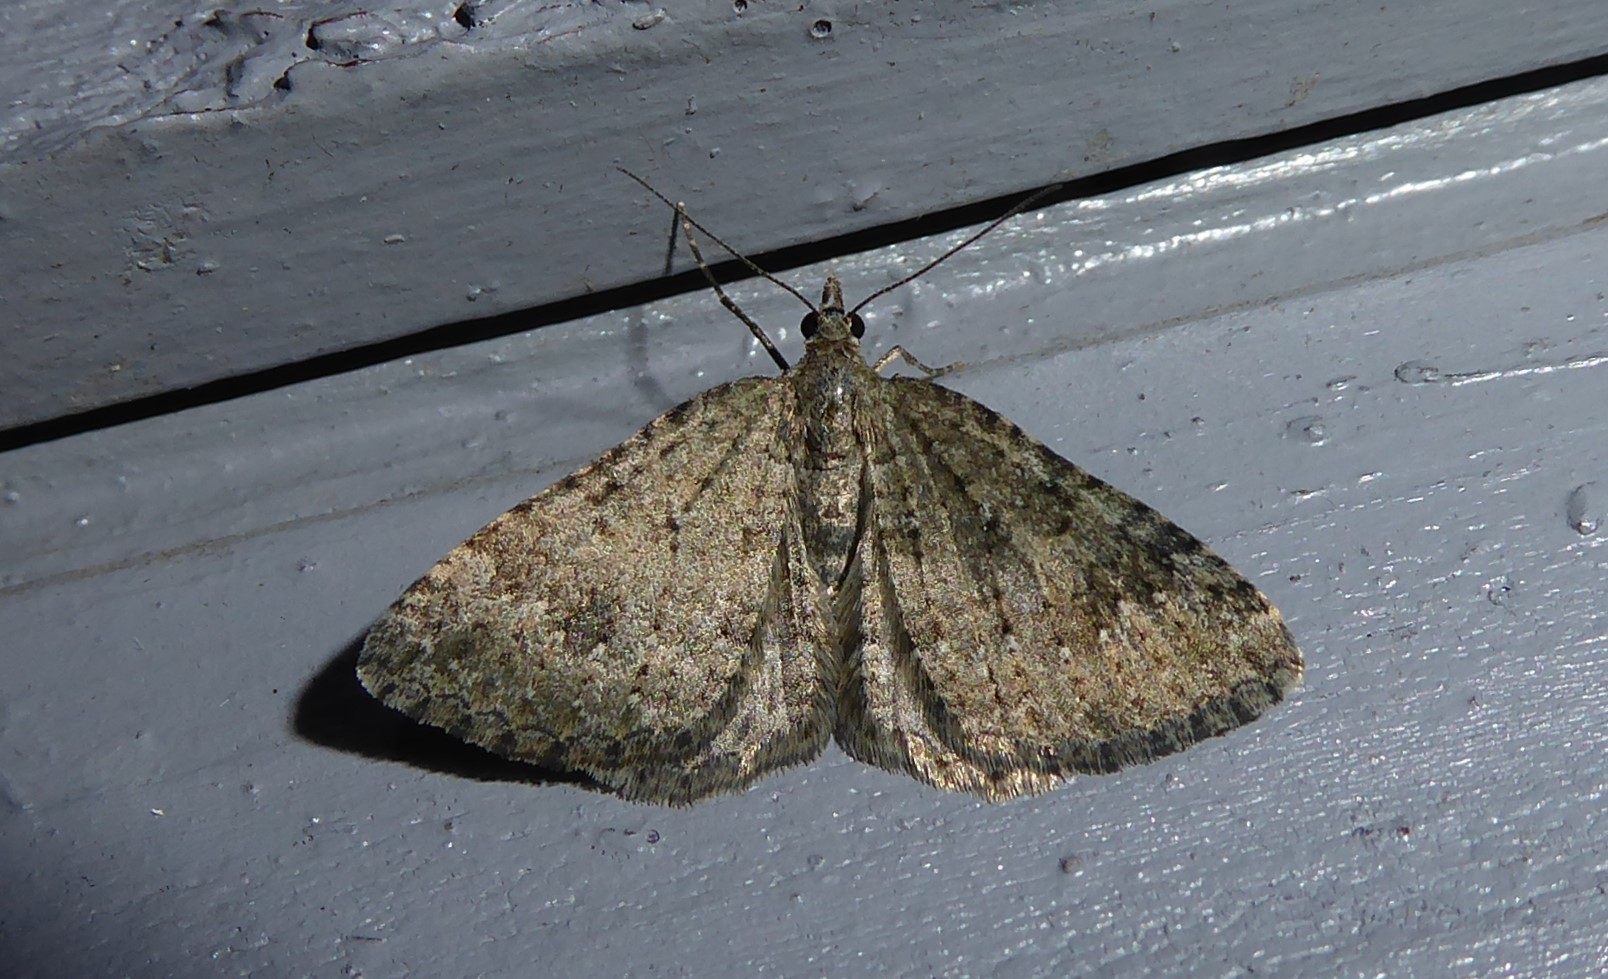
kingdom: Animalia
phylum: Arthropoda
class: Insecta
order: Lepidoptera
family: Geometridae
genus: Helastia
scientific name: Helastia corcularia
